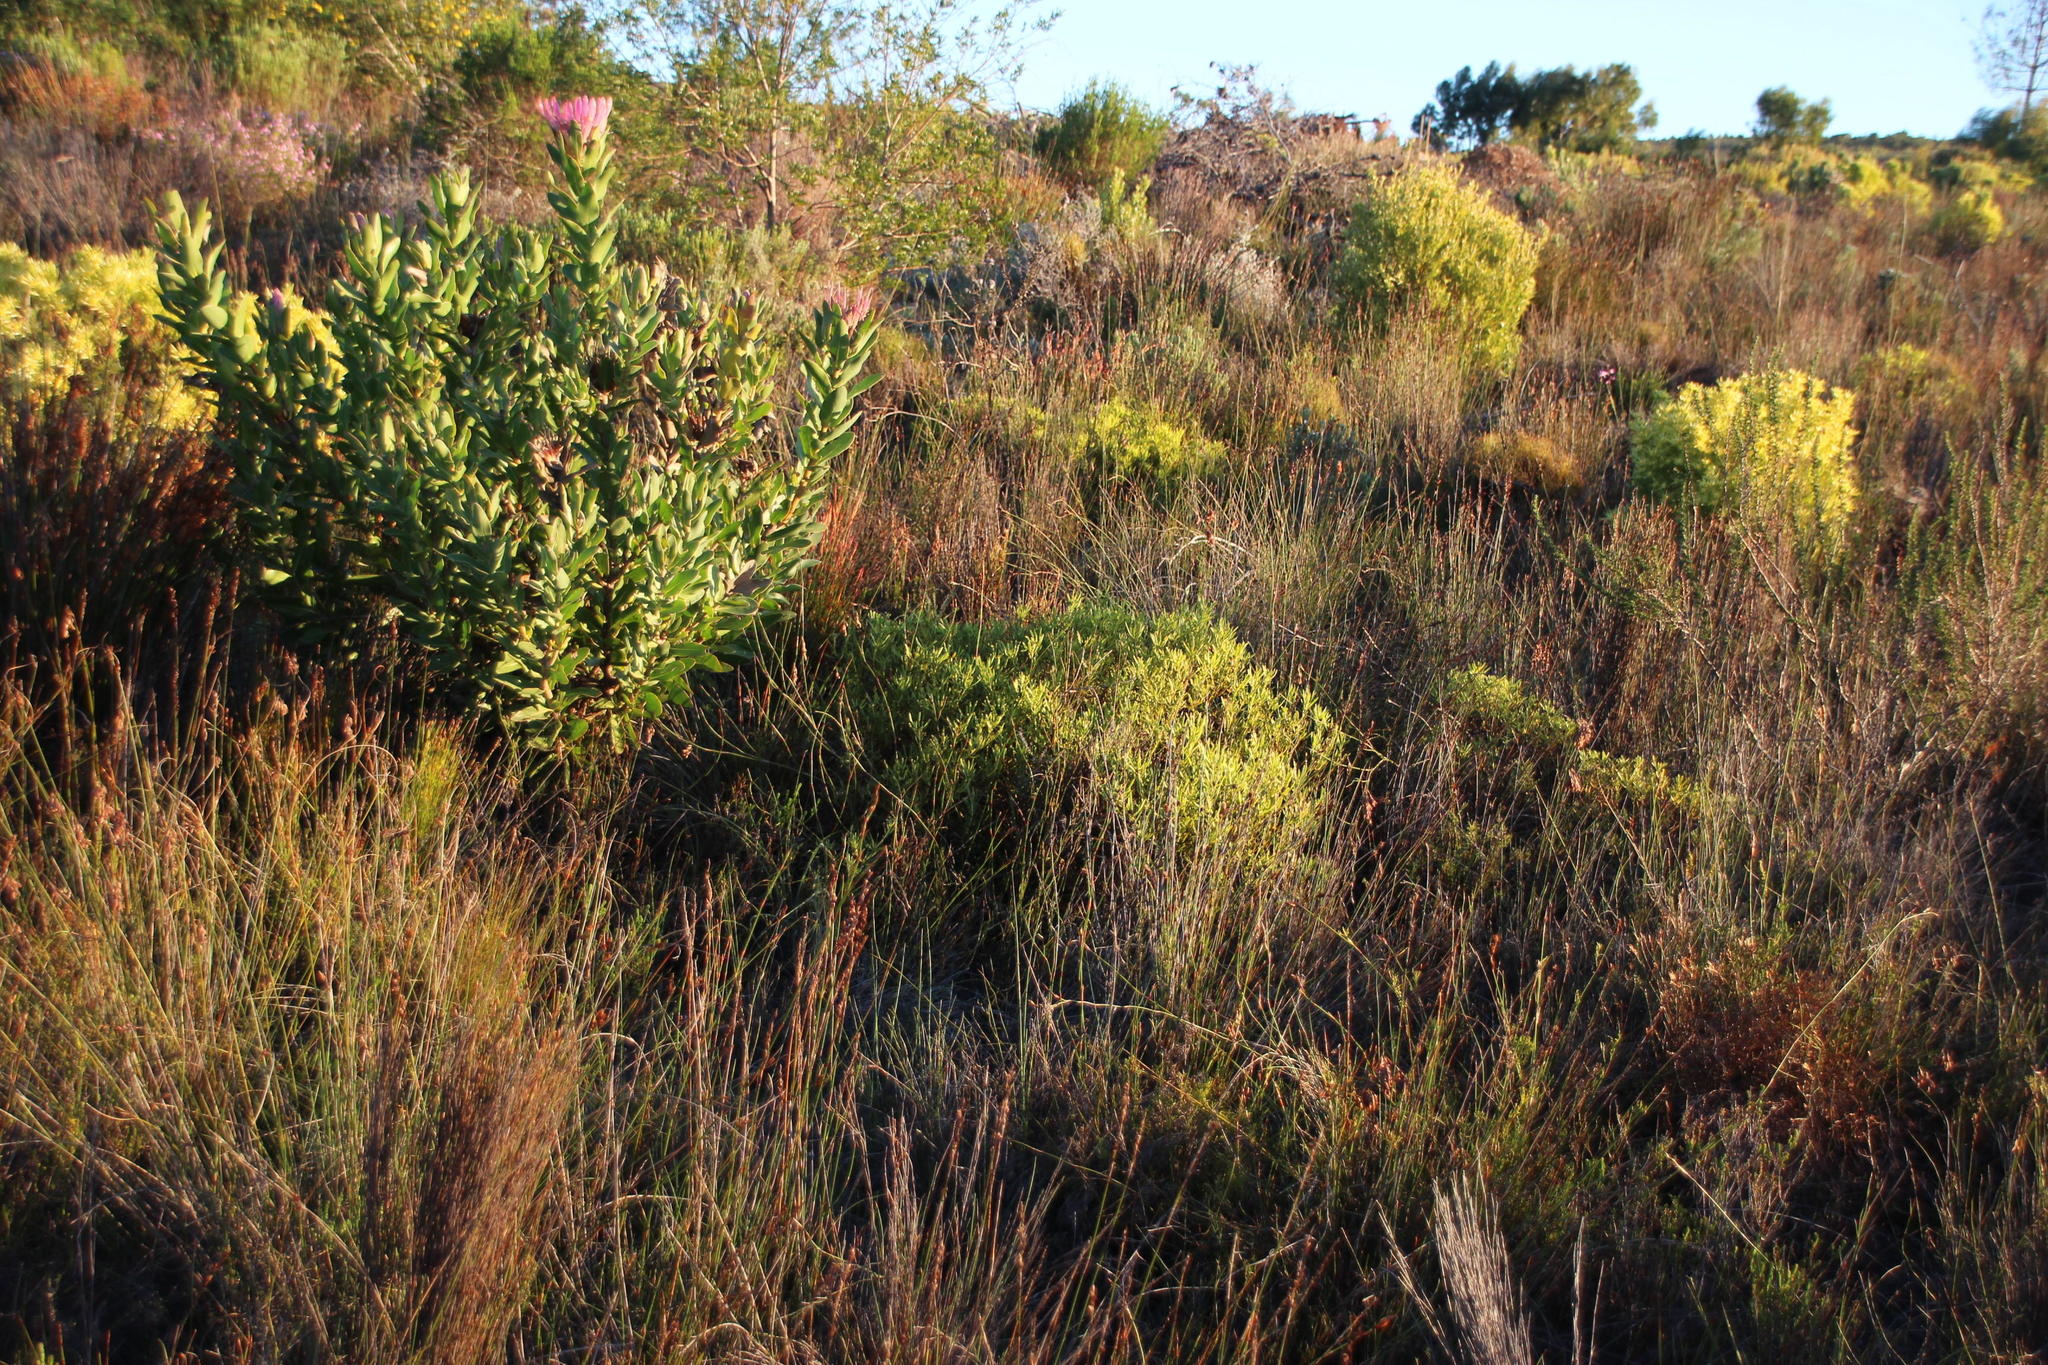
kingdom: Plantae
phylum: Tracheophyta
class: Magnoliopsida
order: Proteales
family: Proteaceae
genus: Leucadendron
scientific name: Leucadendron salignum
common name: Common sunshine conebush
